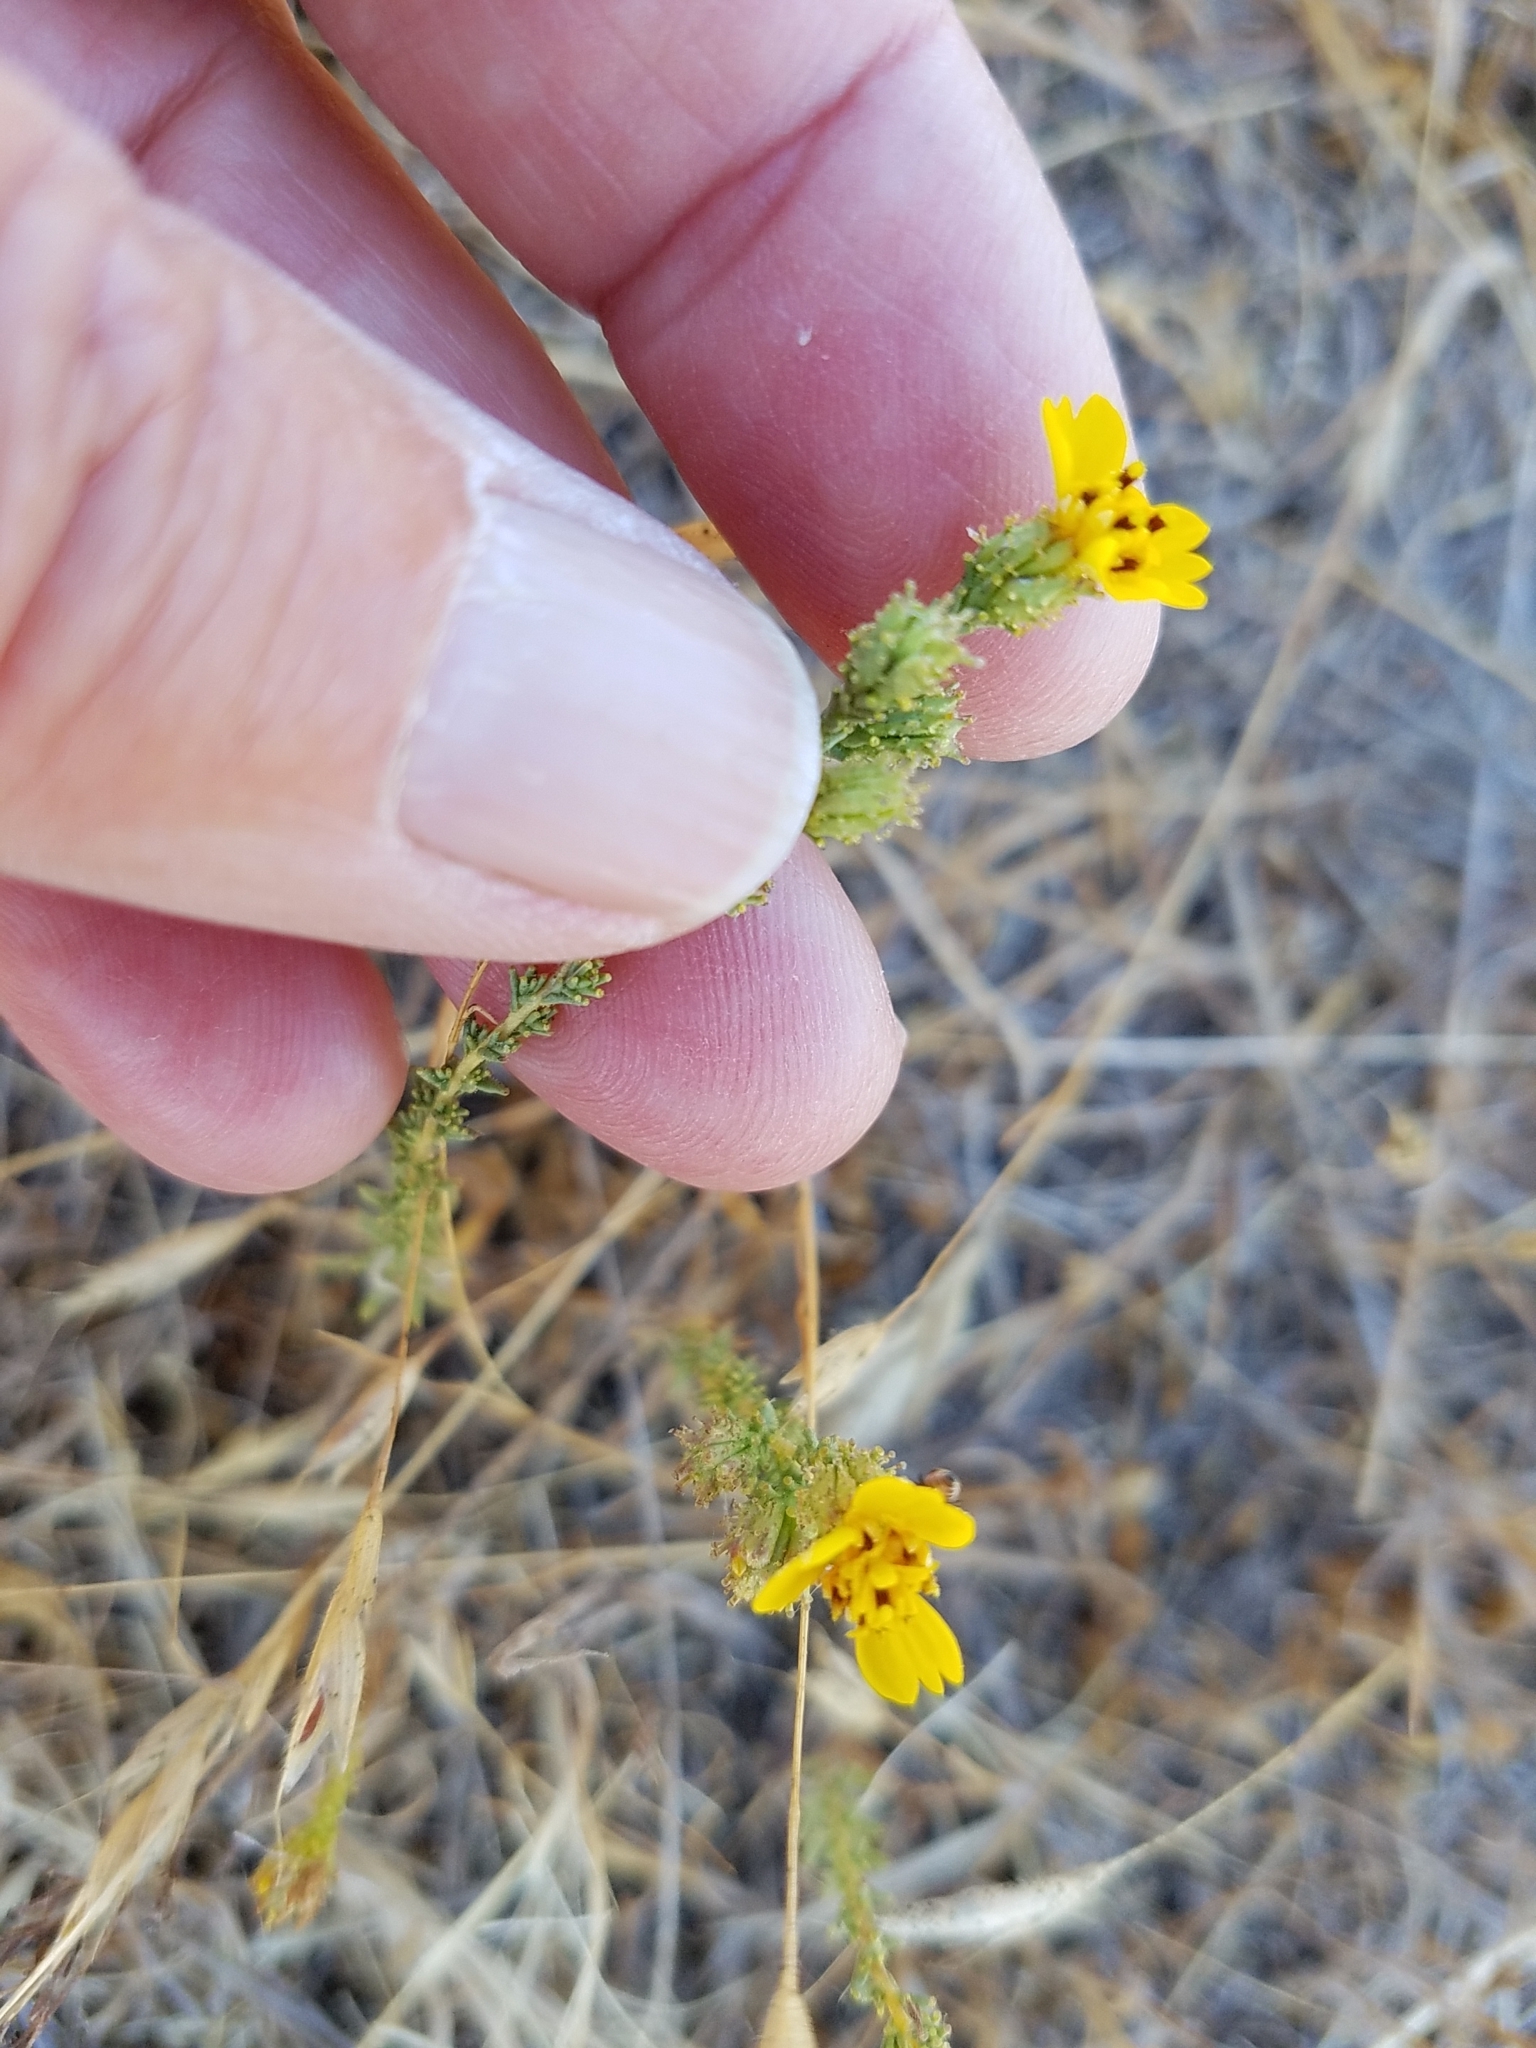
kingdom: Plantae
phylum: Tracheophyta
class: Magnoliopsida
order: Asterales
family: Asteraceae
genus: Holocarpha
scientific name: Holocarpha virgata
